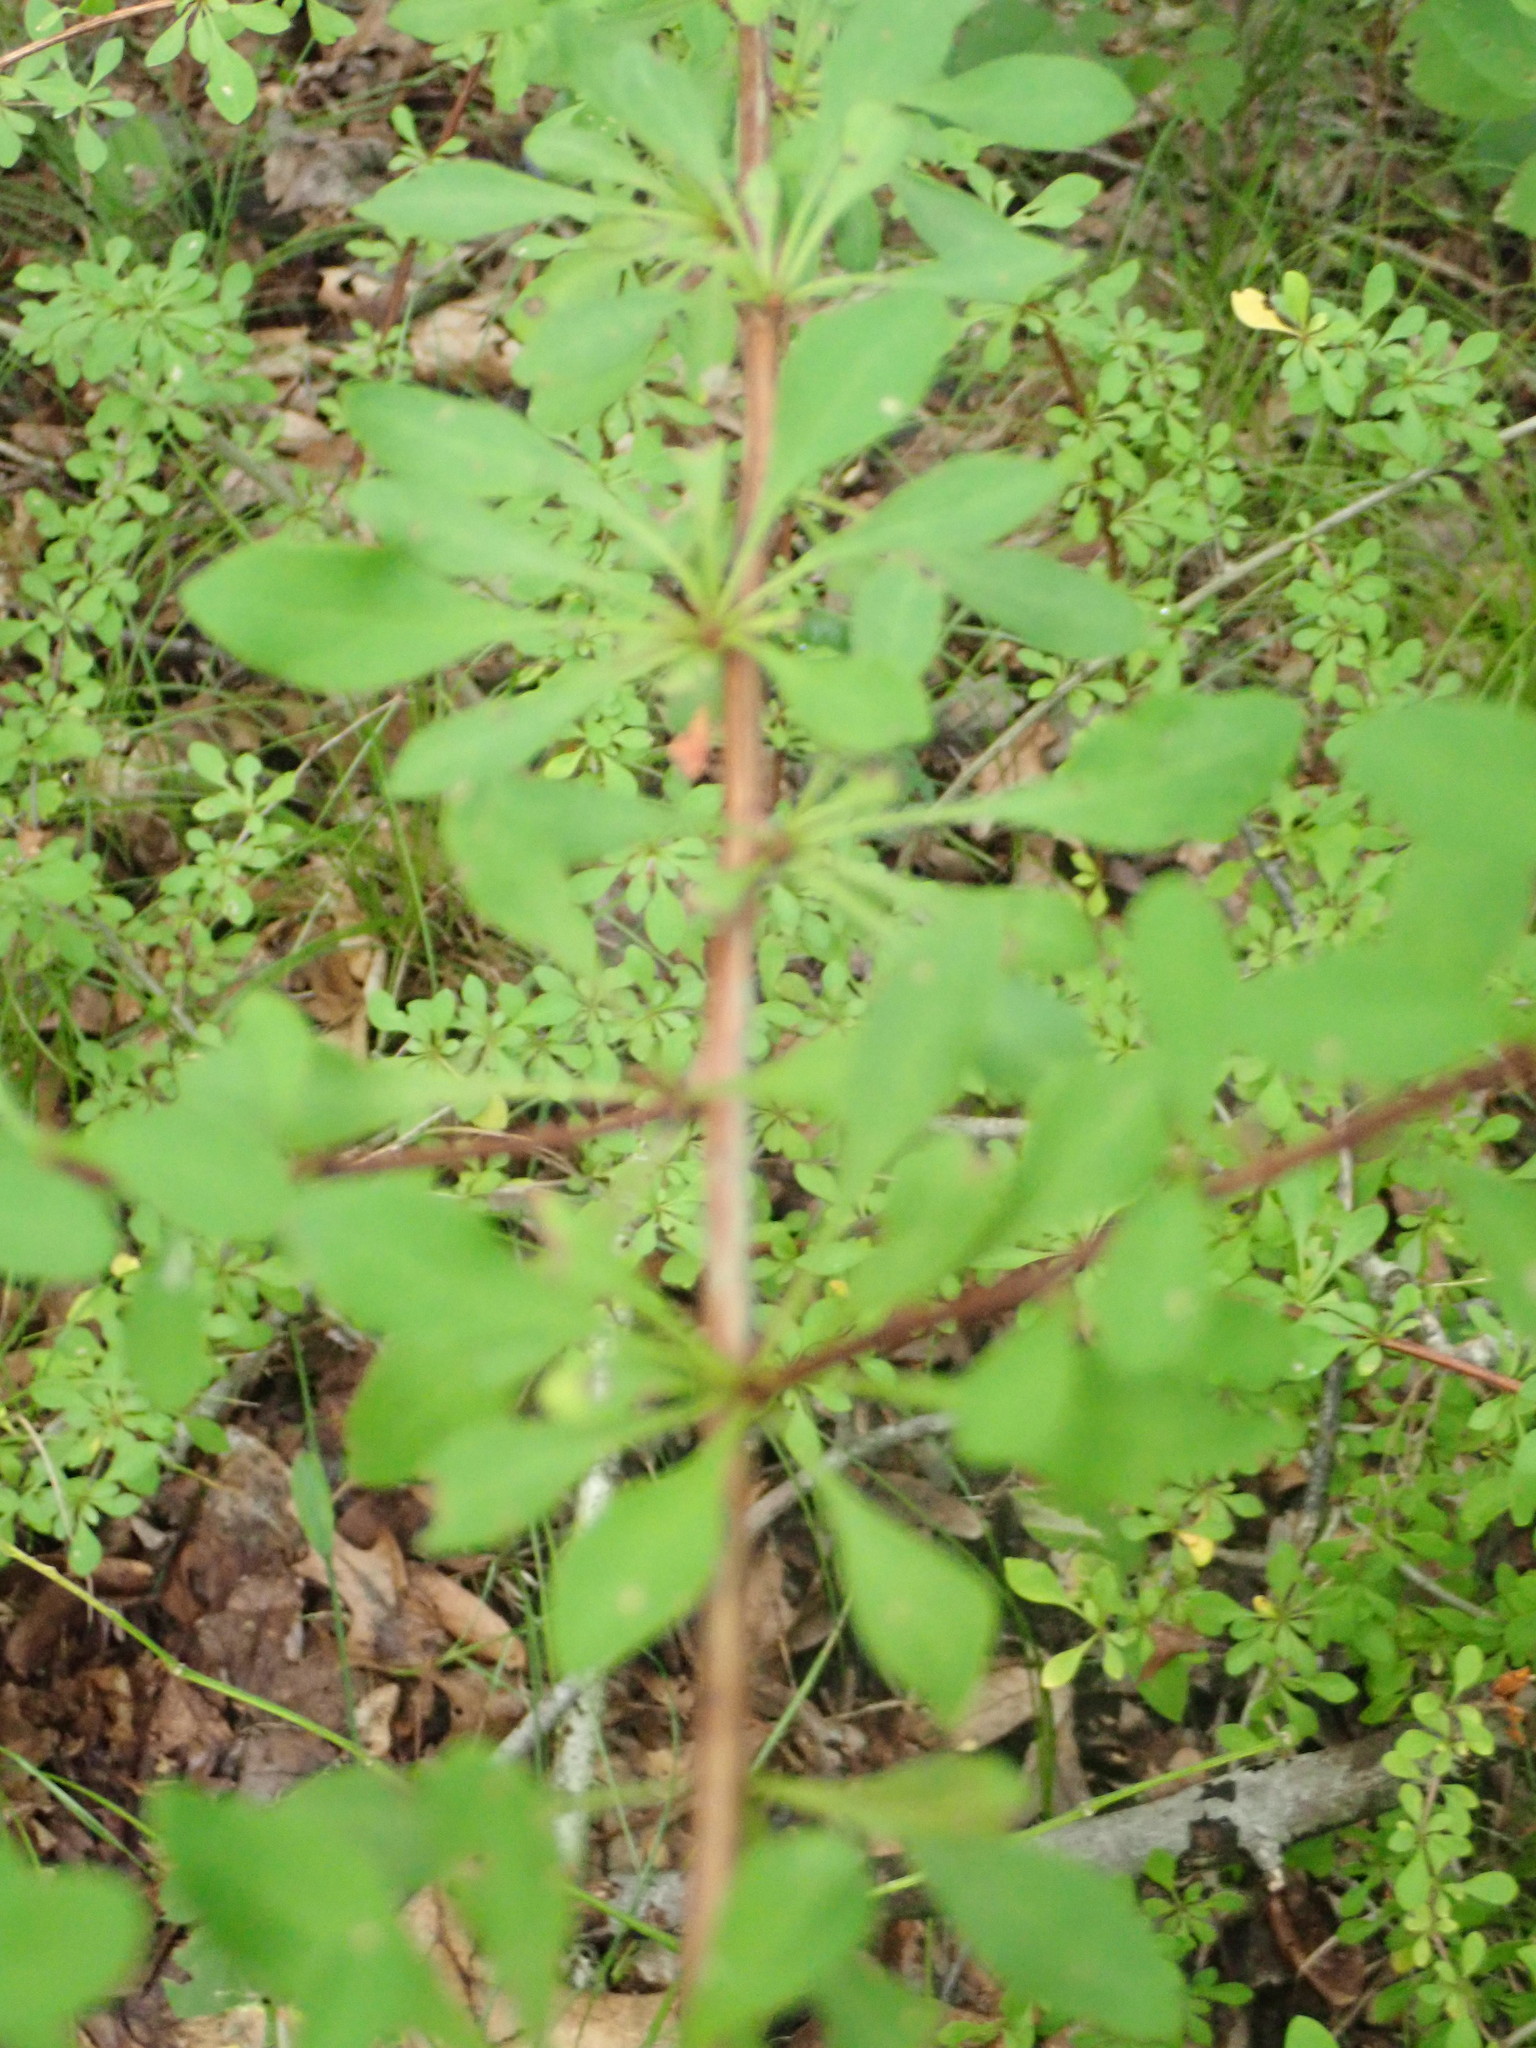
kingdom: Plantae
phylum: Tracheophyta
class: Magnoliopsida
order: Ranunculales
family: Berberidaceae
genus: Berberis
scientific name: Berberis thunbergii
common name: Japanese barberry
